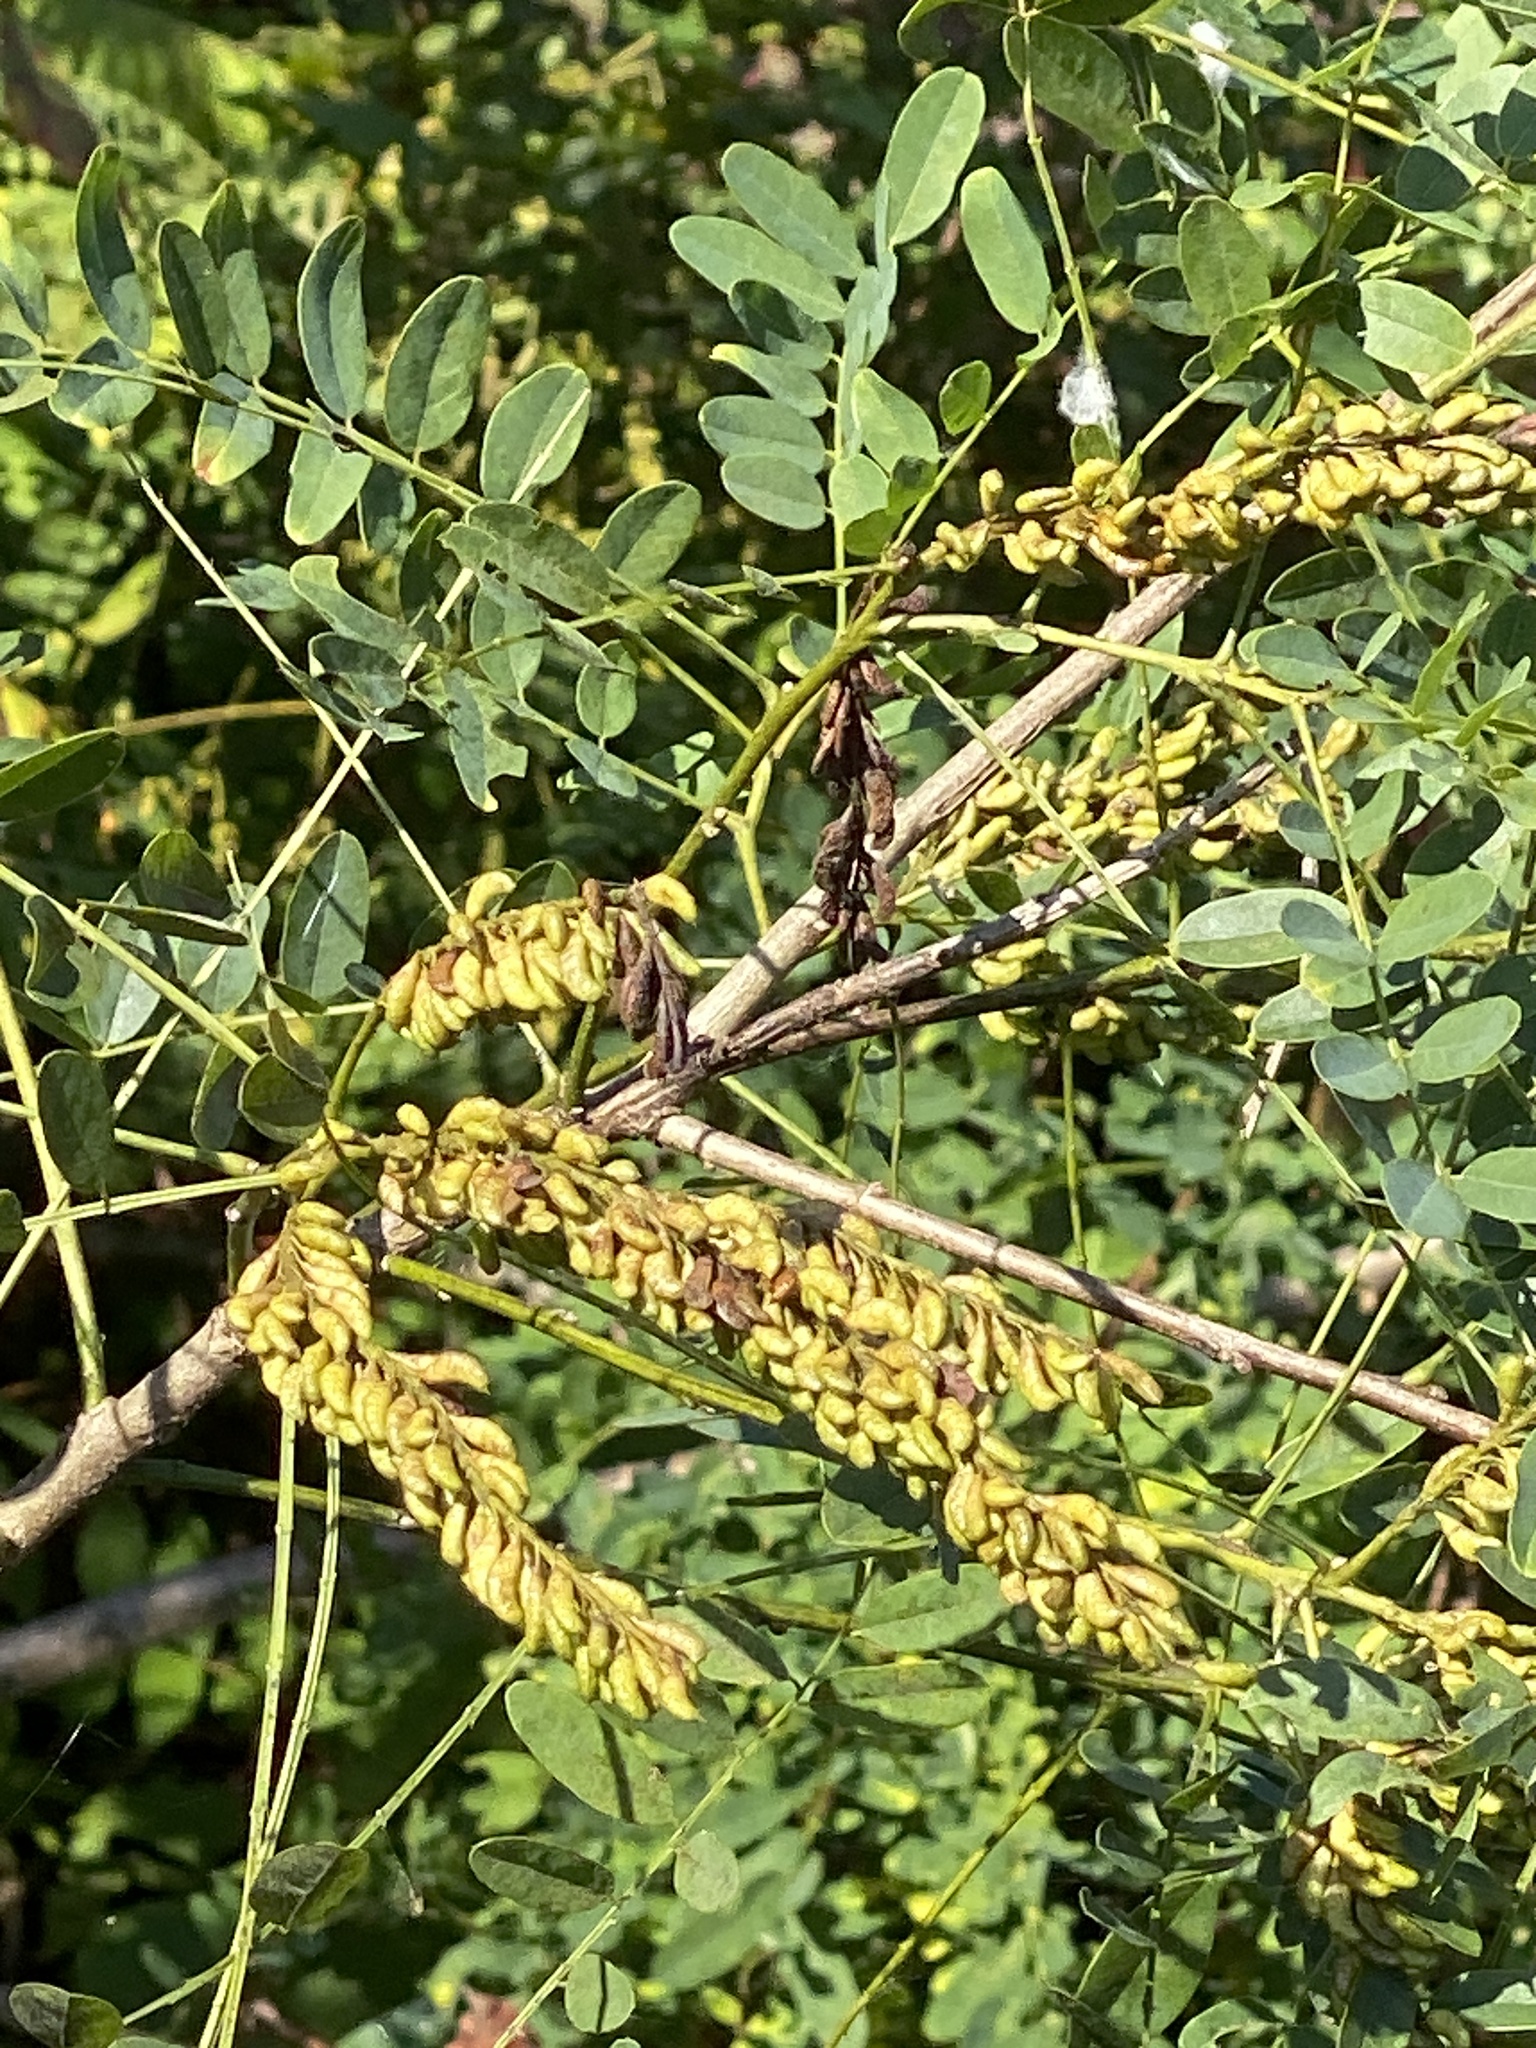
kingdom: Plantae
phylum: Tracheophyta
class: Magnoliopsida
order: Fabales
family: Fabaceae
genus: Amorpha
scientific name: Amorpha fruticosa
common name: False indigo
